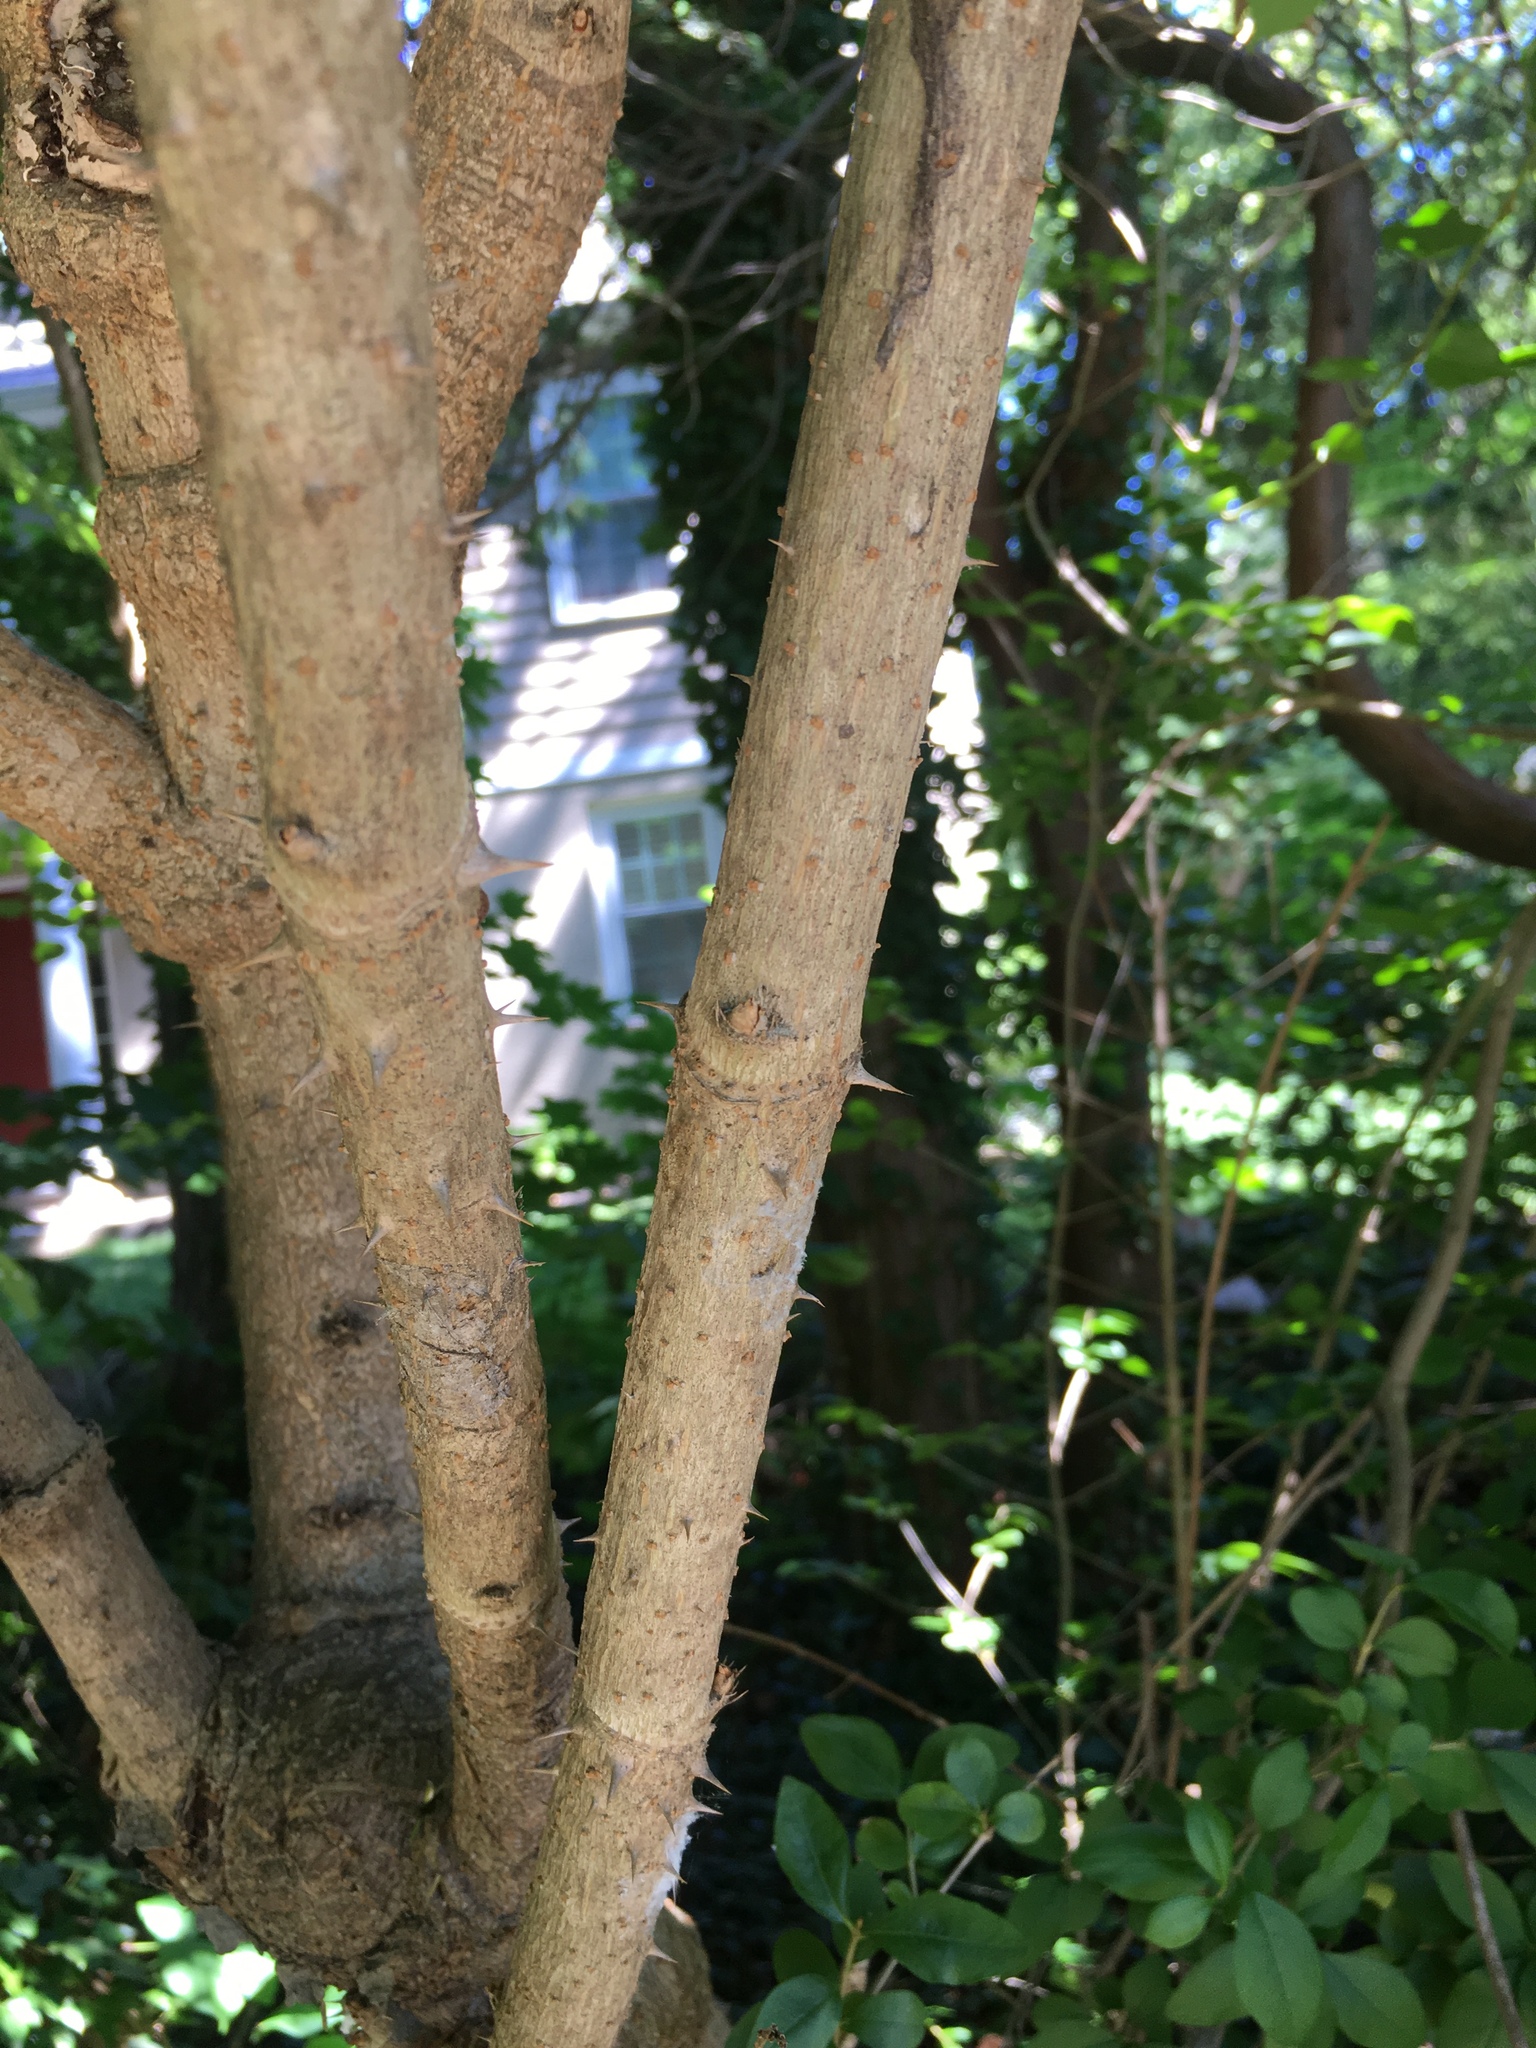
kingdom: Plantae
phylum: Tracheophyta
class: Magnoliopsida
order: Apiales
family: Araliaceae
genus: Aralia
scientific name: Aralia elata
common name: Japanese angelica-tree
